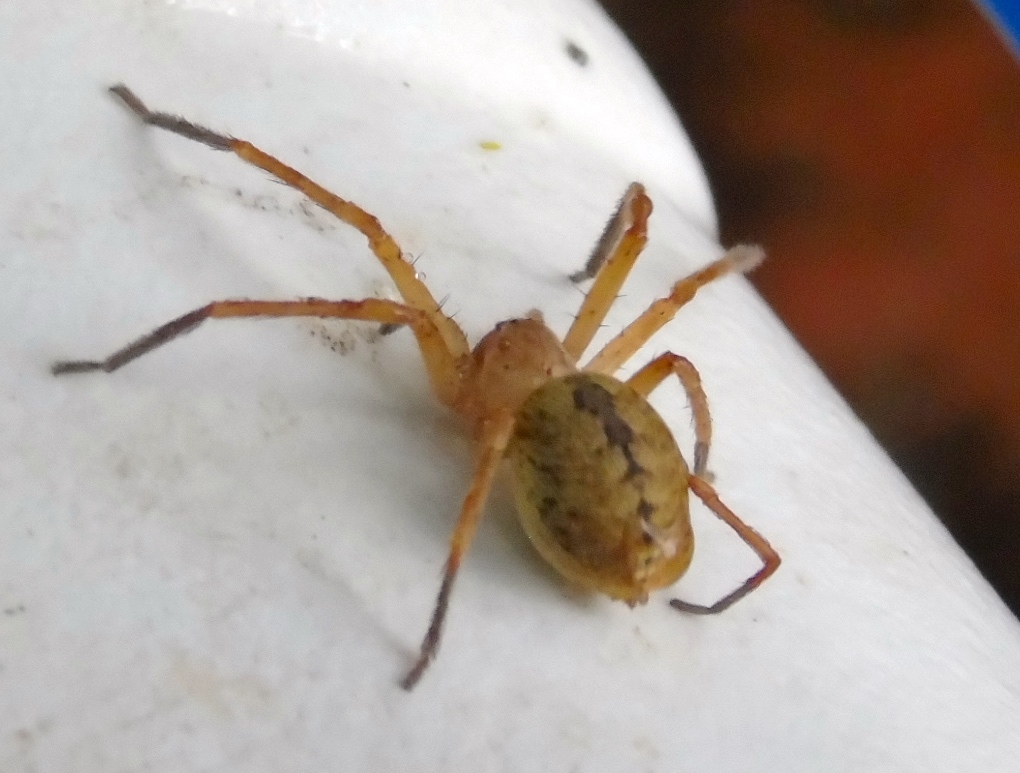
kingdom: Animalia
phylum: Arthropoda
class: Arachnida
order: Araneae
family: Sparassidae
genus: Curicaberis
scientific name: Curicaberis culiacan
